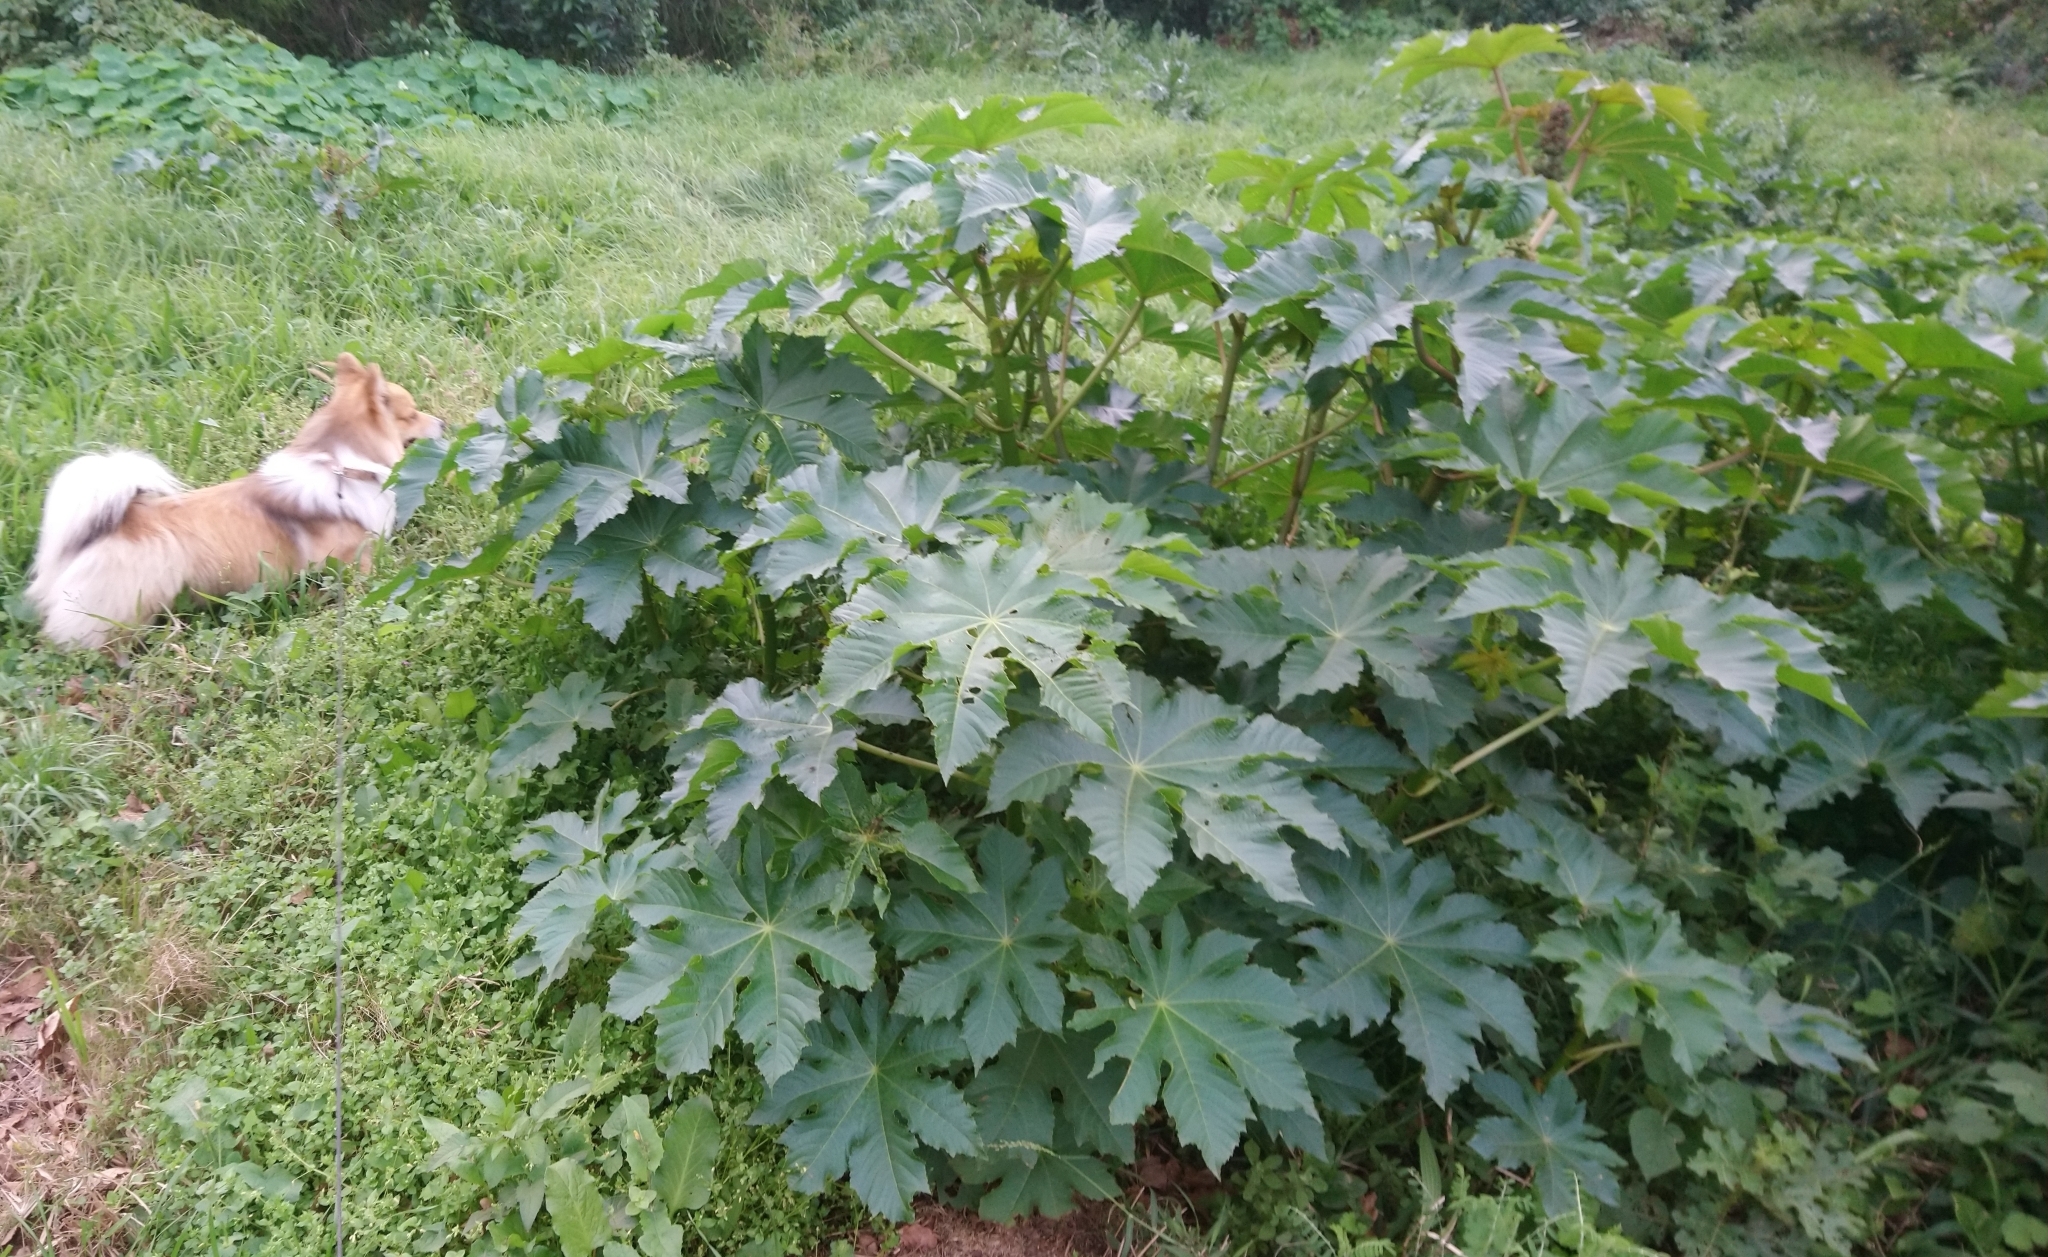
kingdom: Plantae
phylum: Tracheophyta
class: Magnoliopsida
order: Malpighiales
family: Euphorbiaceae
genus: Ricinus
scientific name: Ricinus communis
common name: Castor-oil-plant
